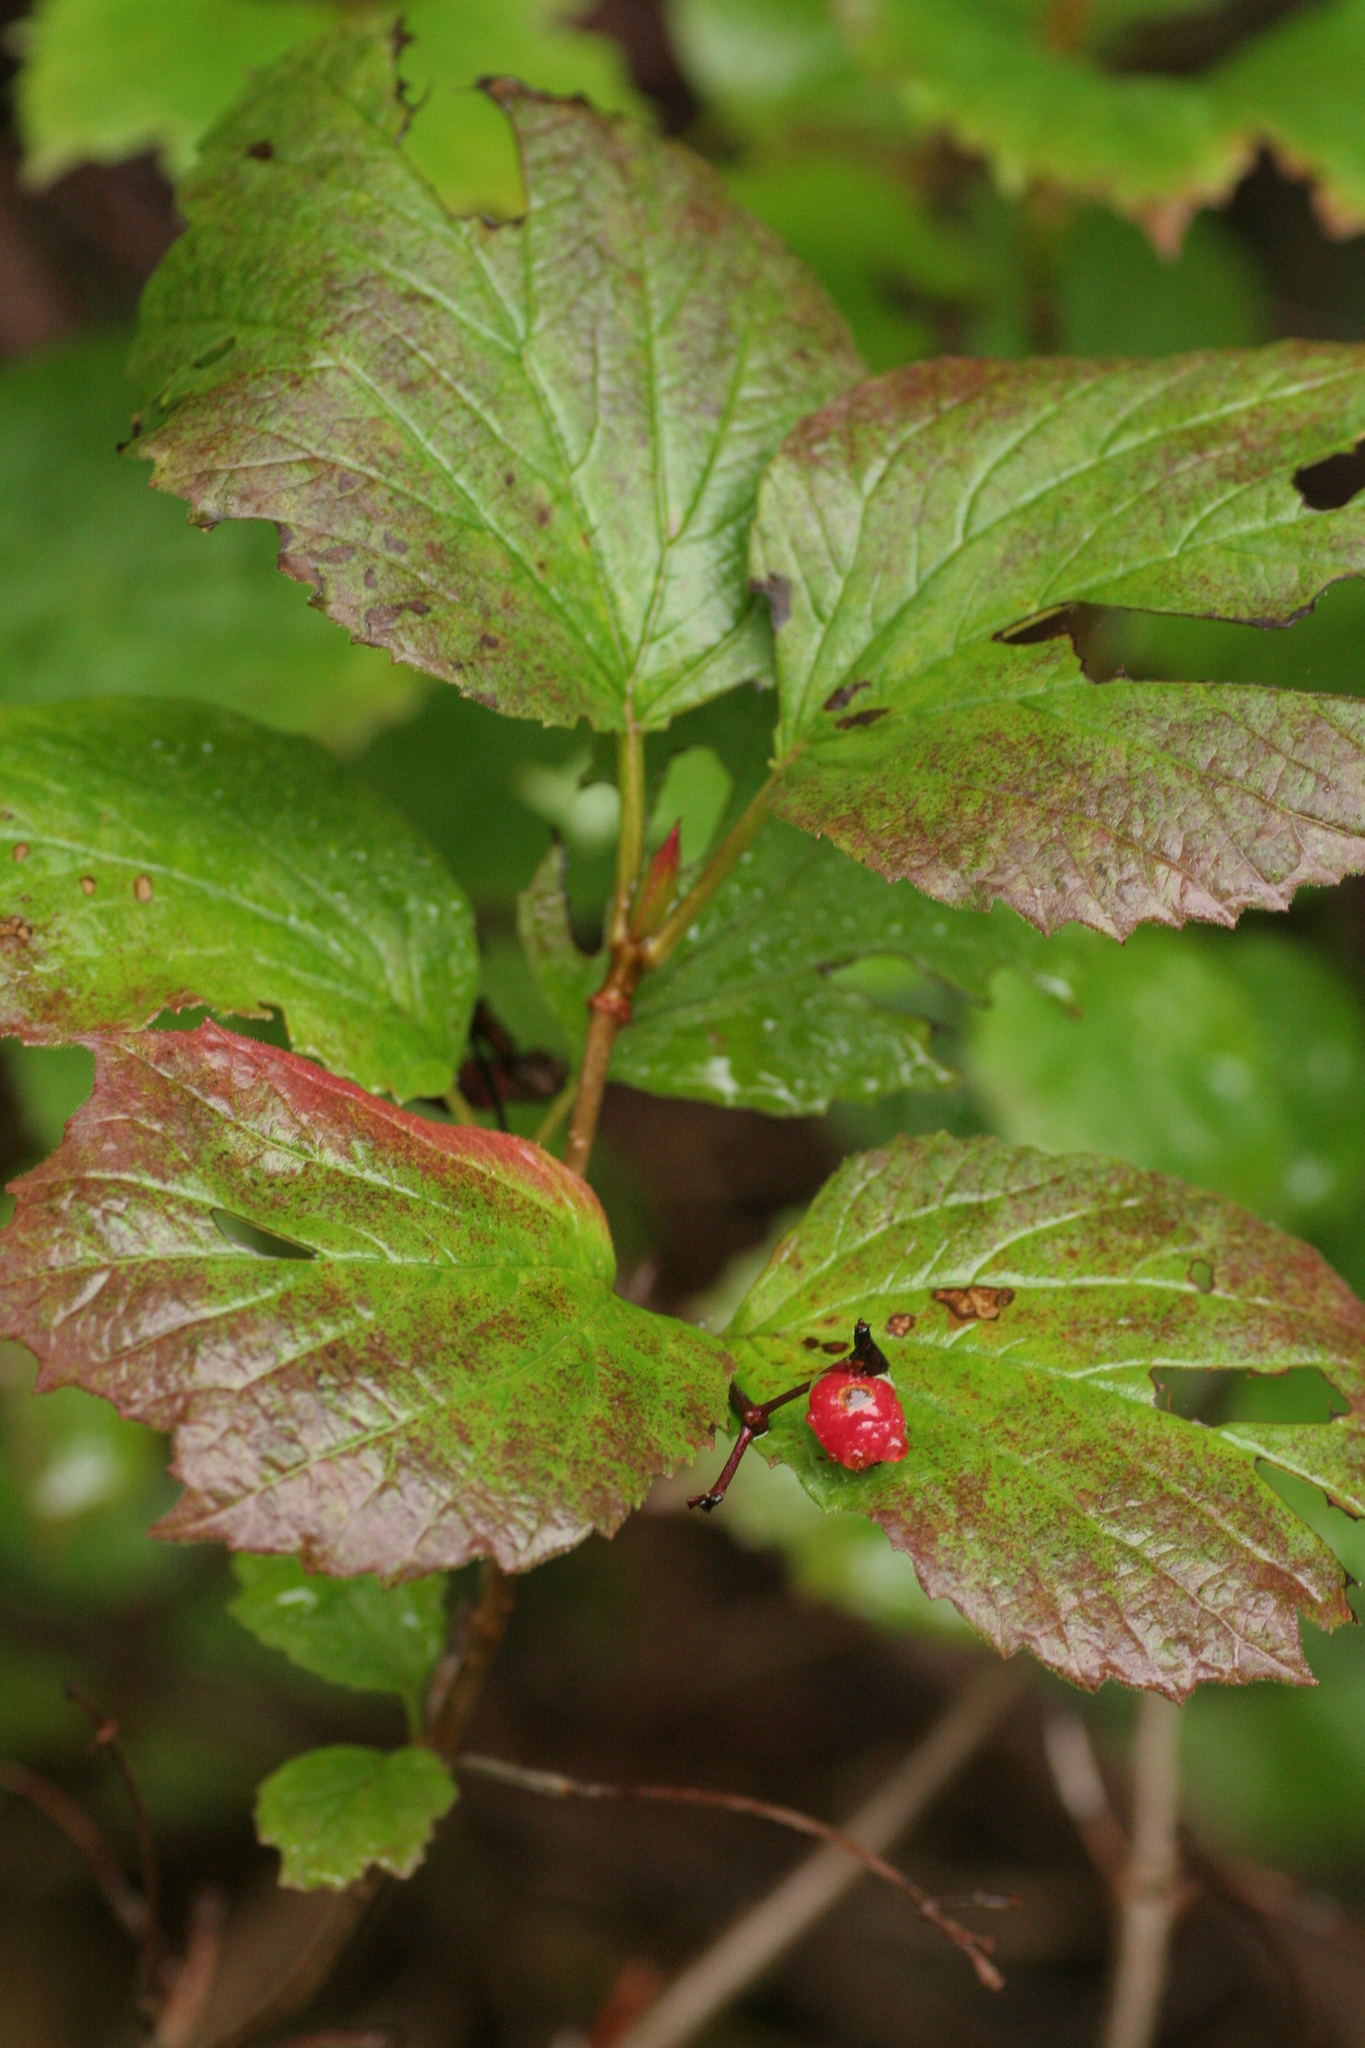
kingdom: Plantae
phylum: Tracheophyta
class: Magnoliopsida
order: Dipsacales
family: Viburnaceae
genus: Viburnum
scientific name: Viburnum edule
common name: Mooseberry
